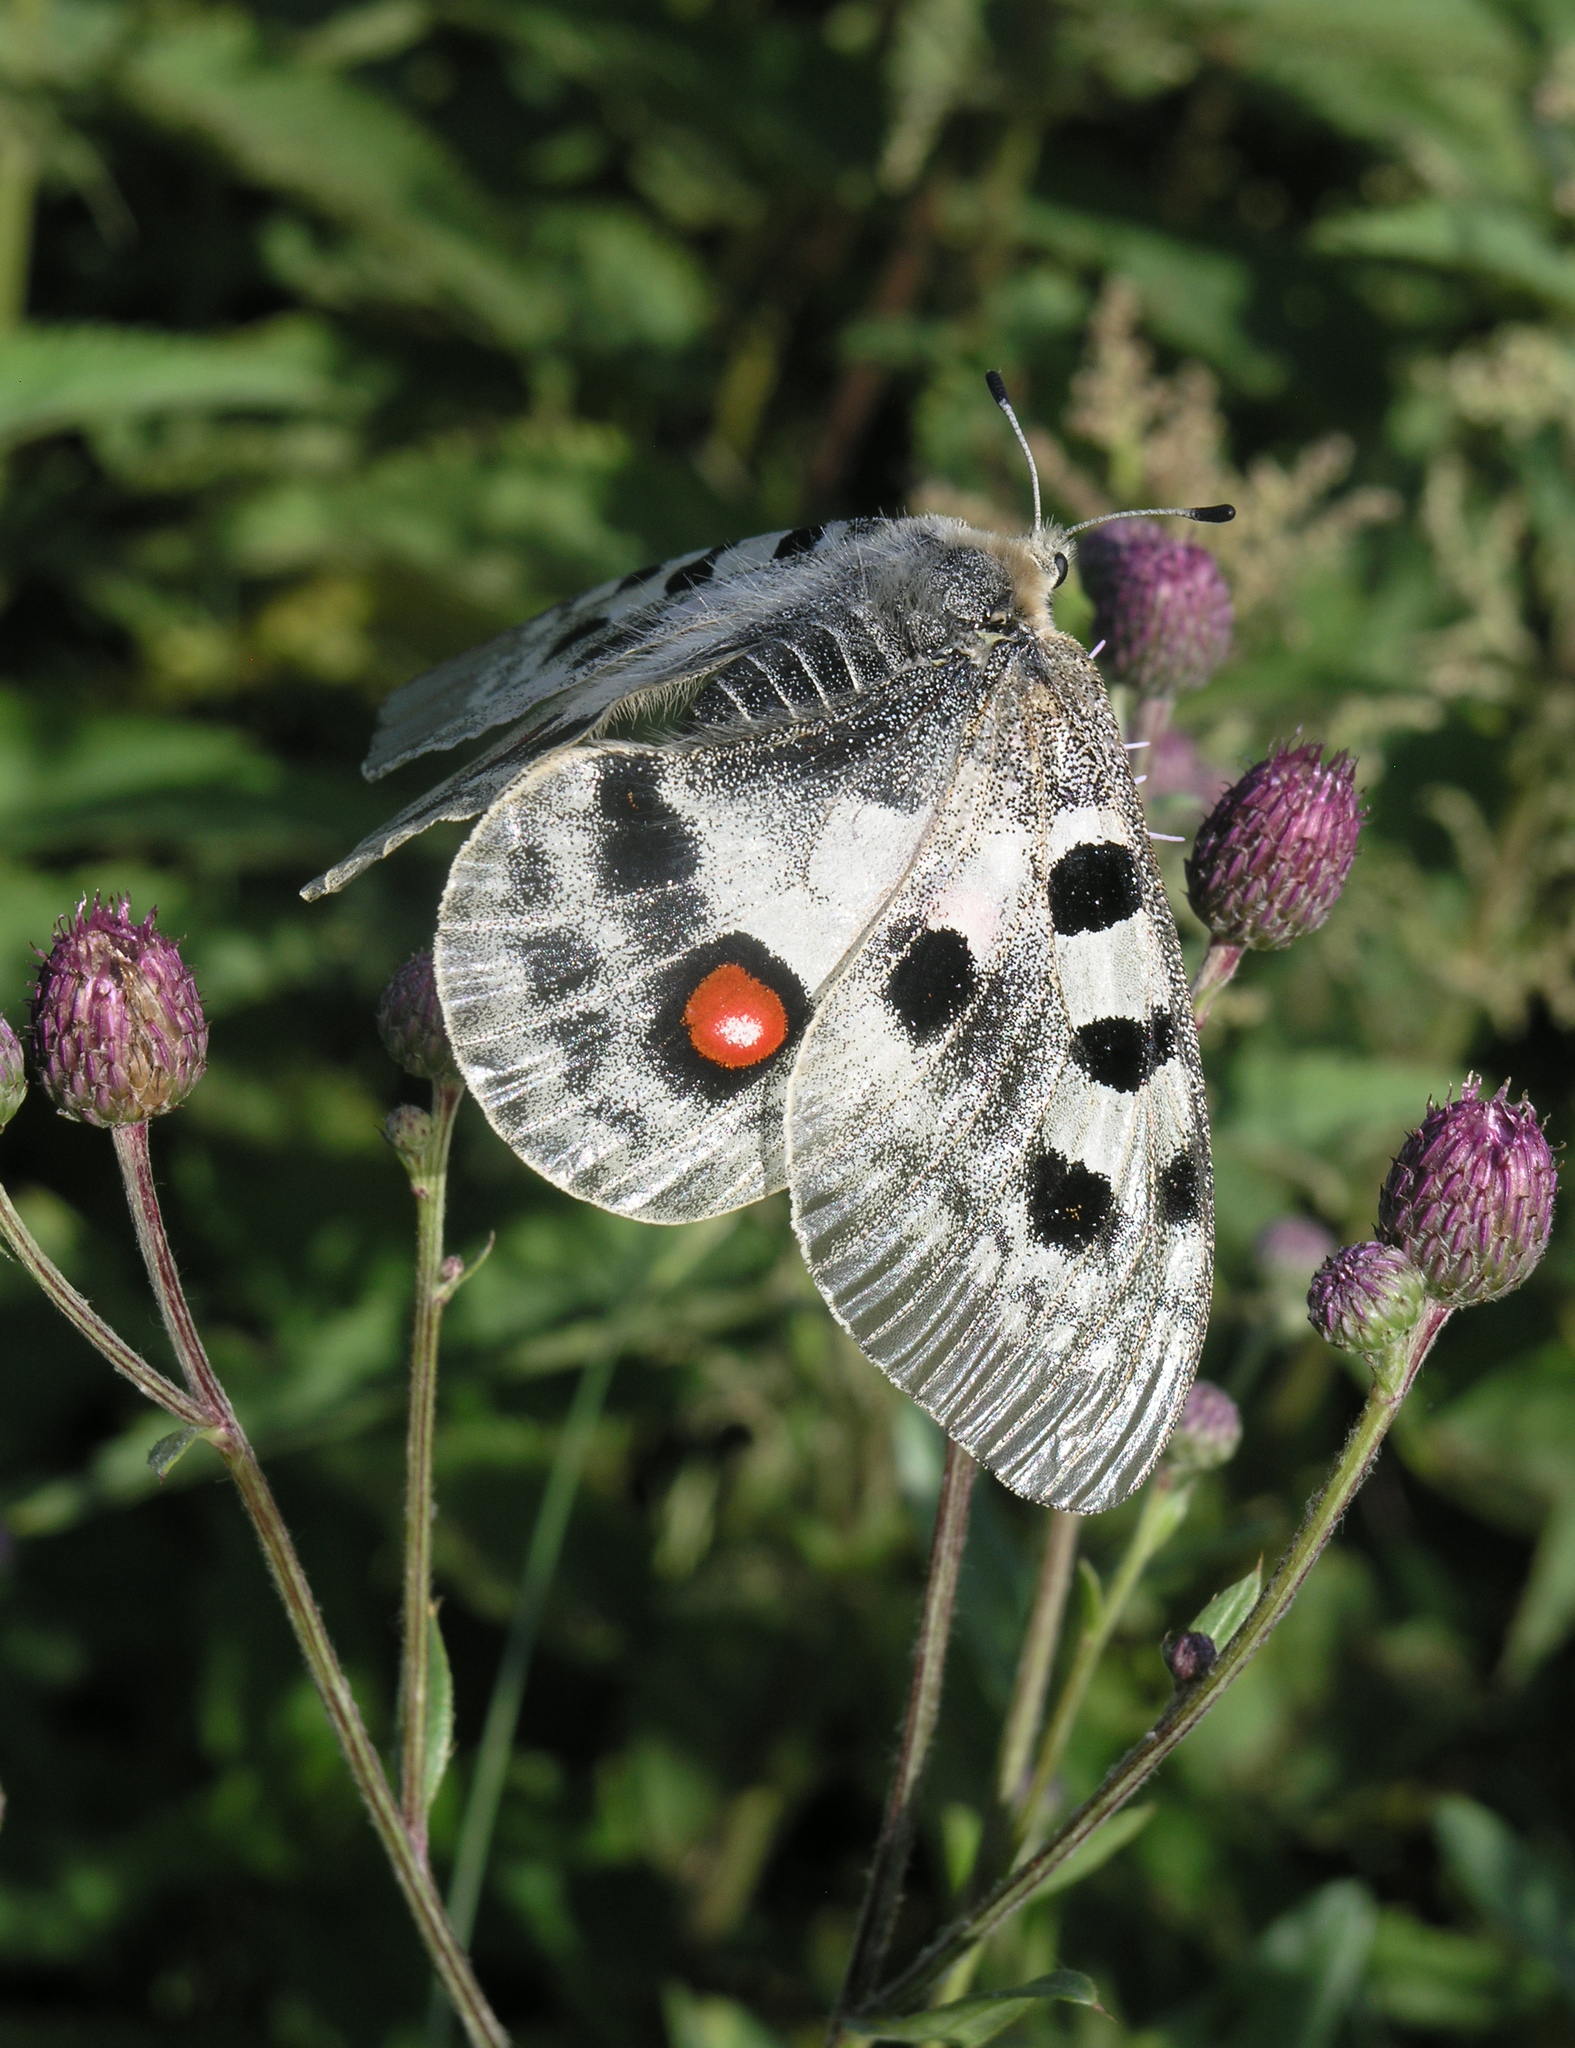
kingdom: Animalia
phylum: Arthropoda
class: Insecta
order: Lepidoptera
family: Papilionidae
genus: Parnassius
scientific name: Parnassius apollo
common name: Apollo
